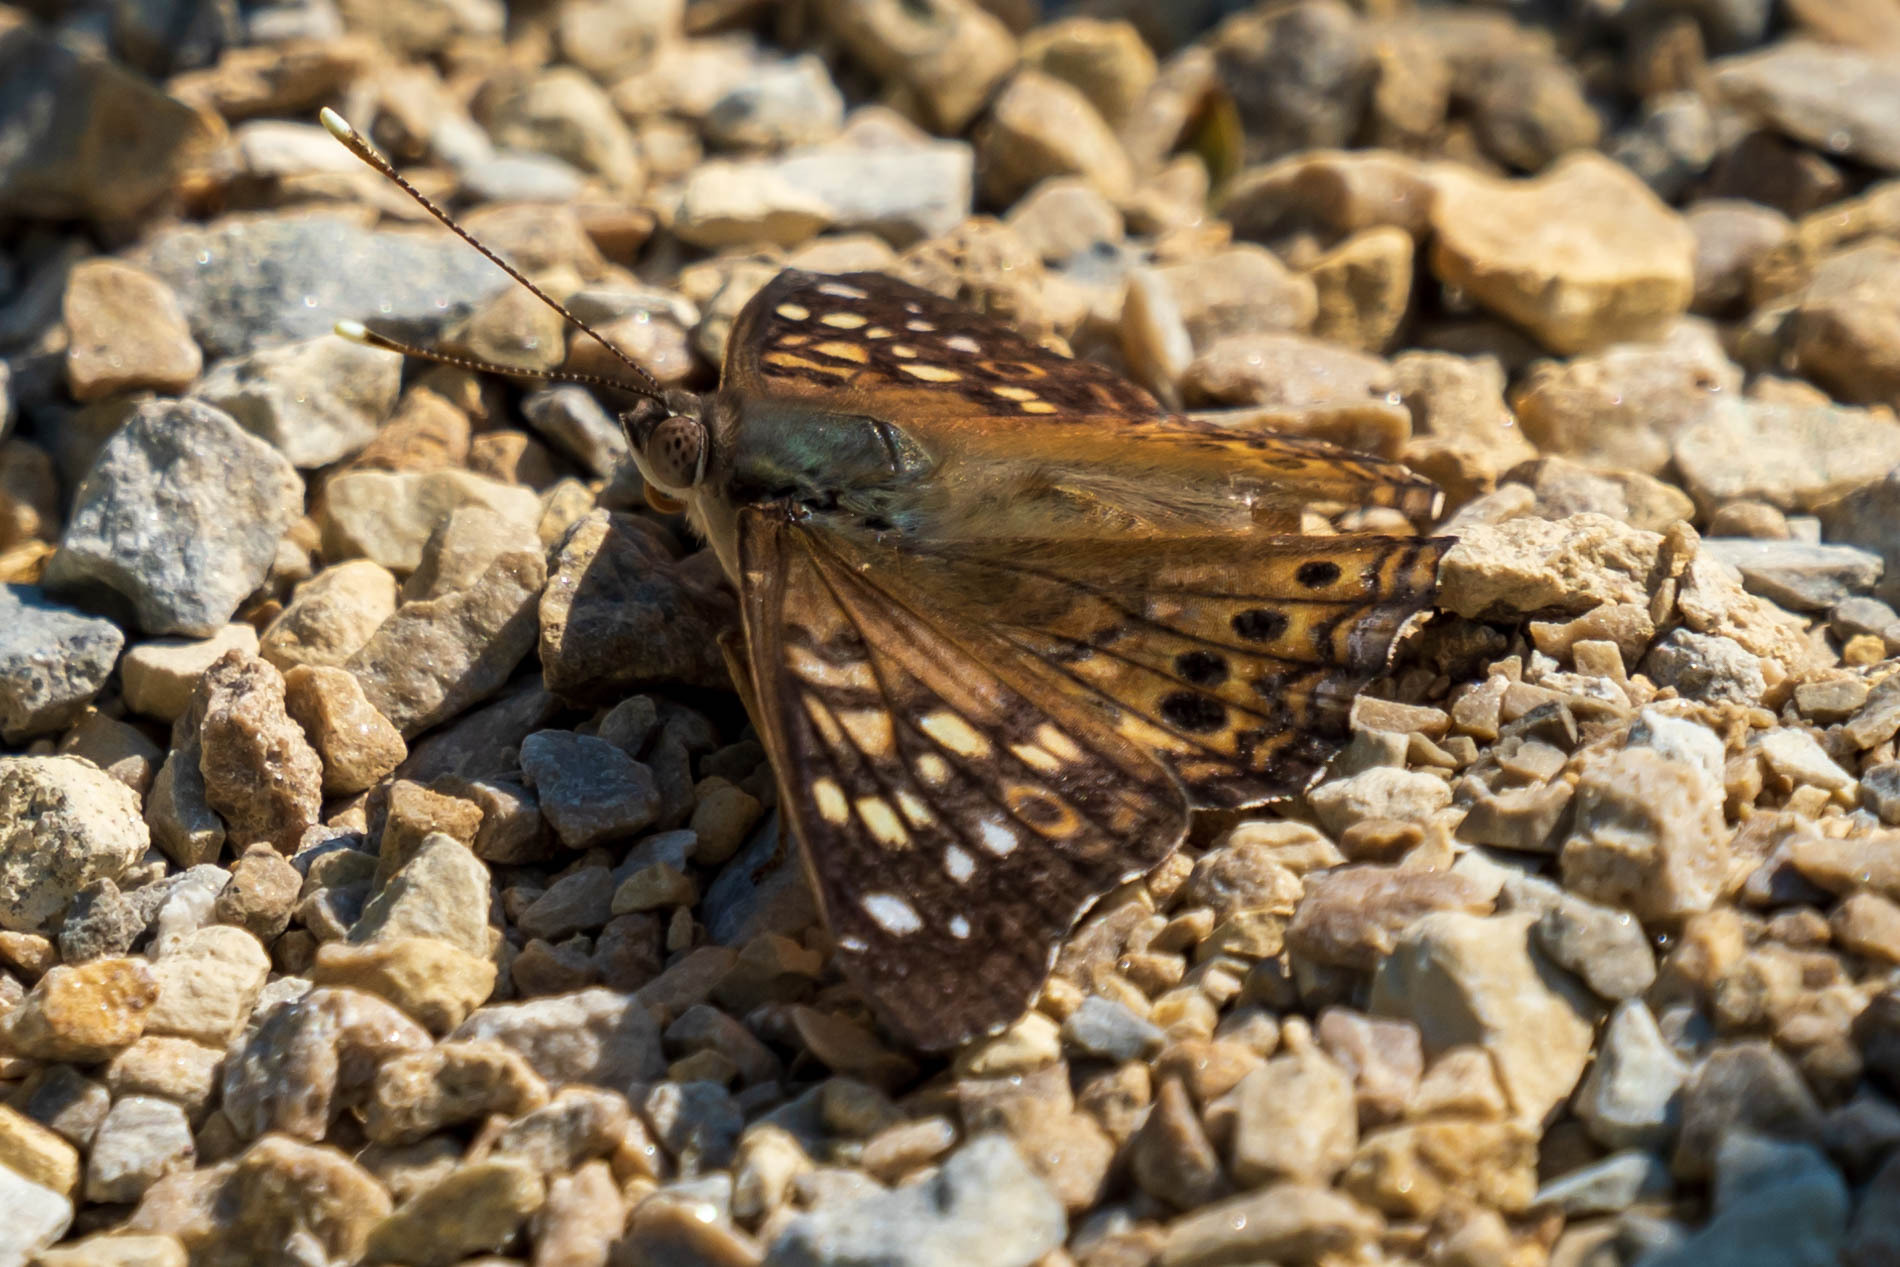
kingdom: Animalia
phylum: Arthropoda
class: Insecta
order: Lepidoptera
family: Nymphalidae
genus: Asterocampa
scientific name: Asterocampa celtis
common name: Hackberry emperor
